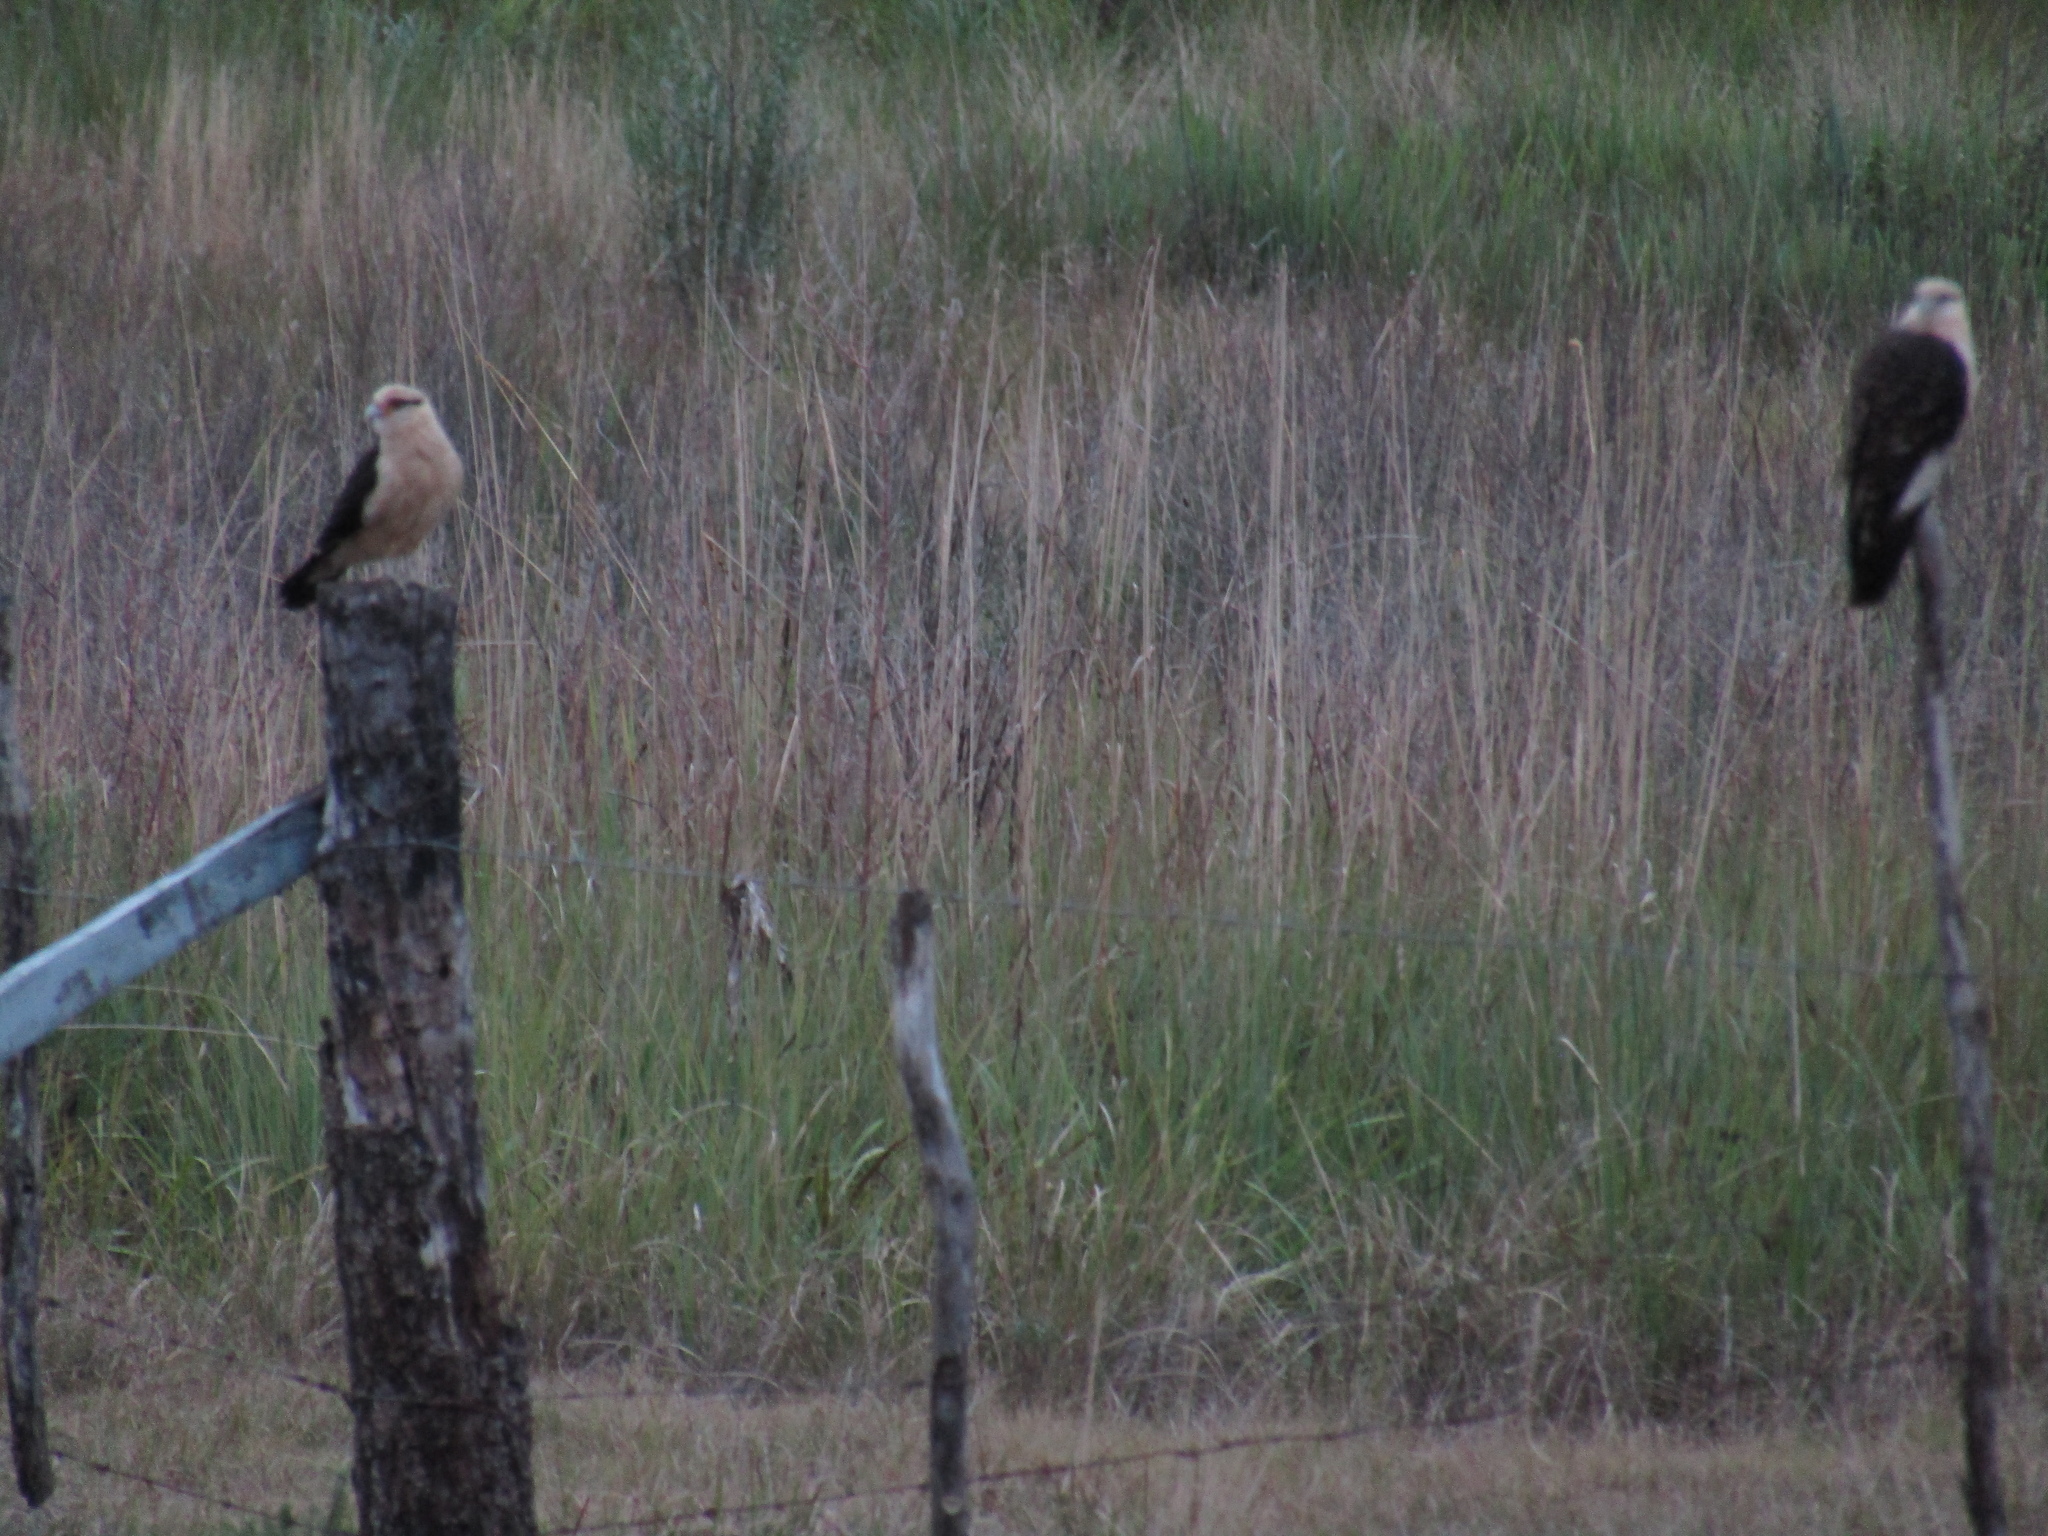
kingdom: Animalia
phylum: Chordata
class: Aves
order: Falconiformes
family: Falconidae
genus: Daptrius
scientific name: Daptrius
